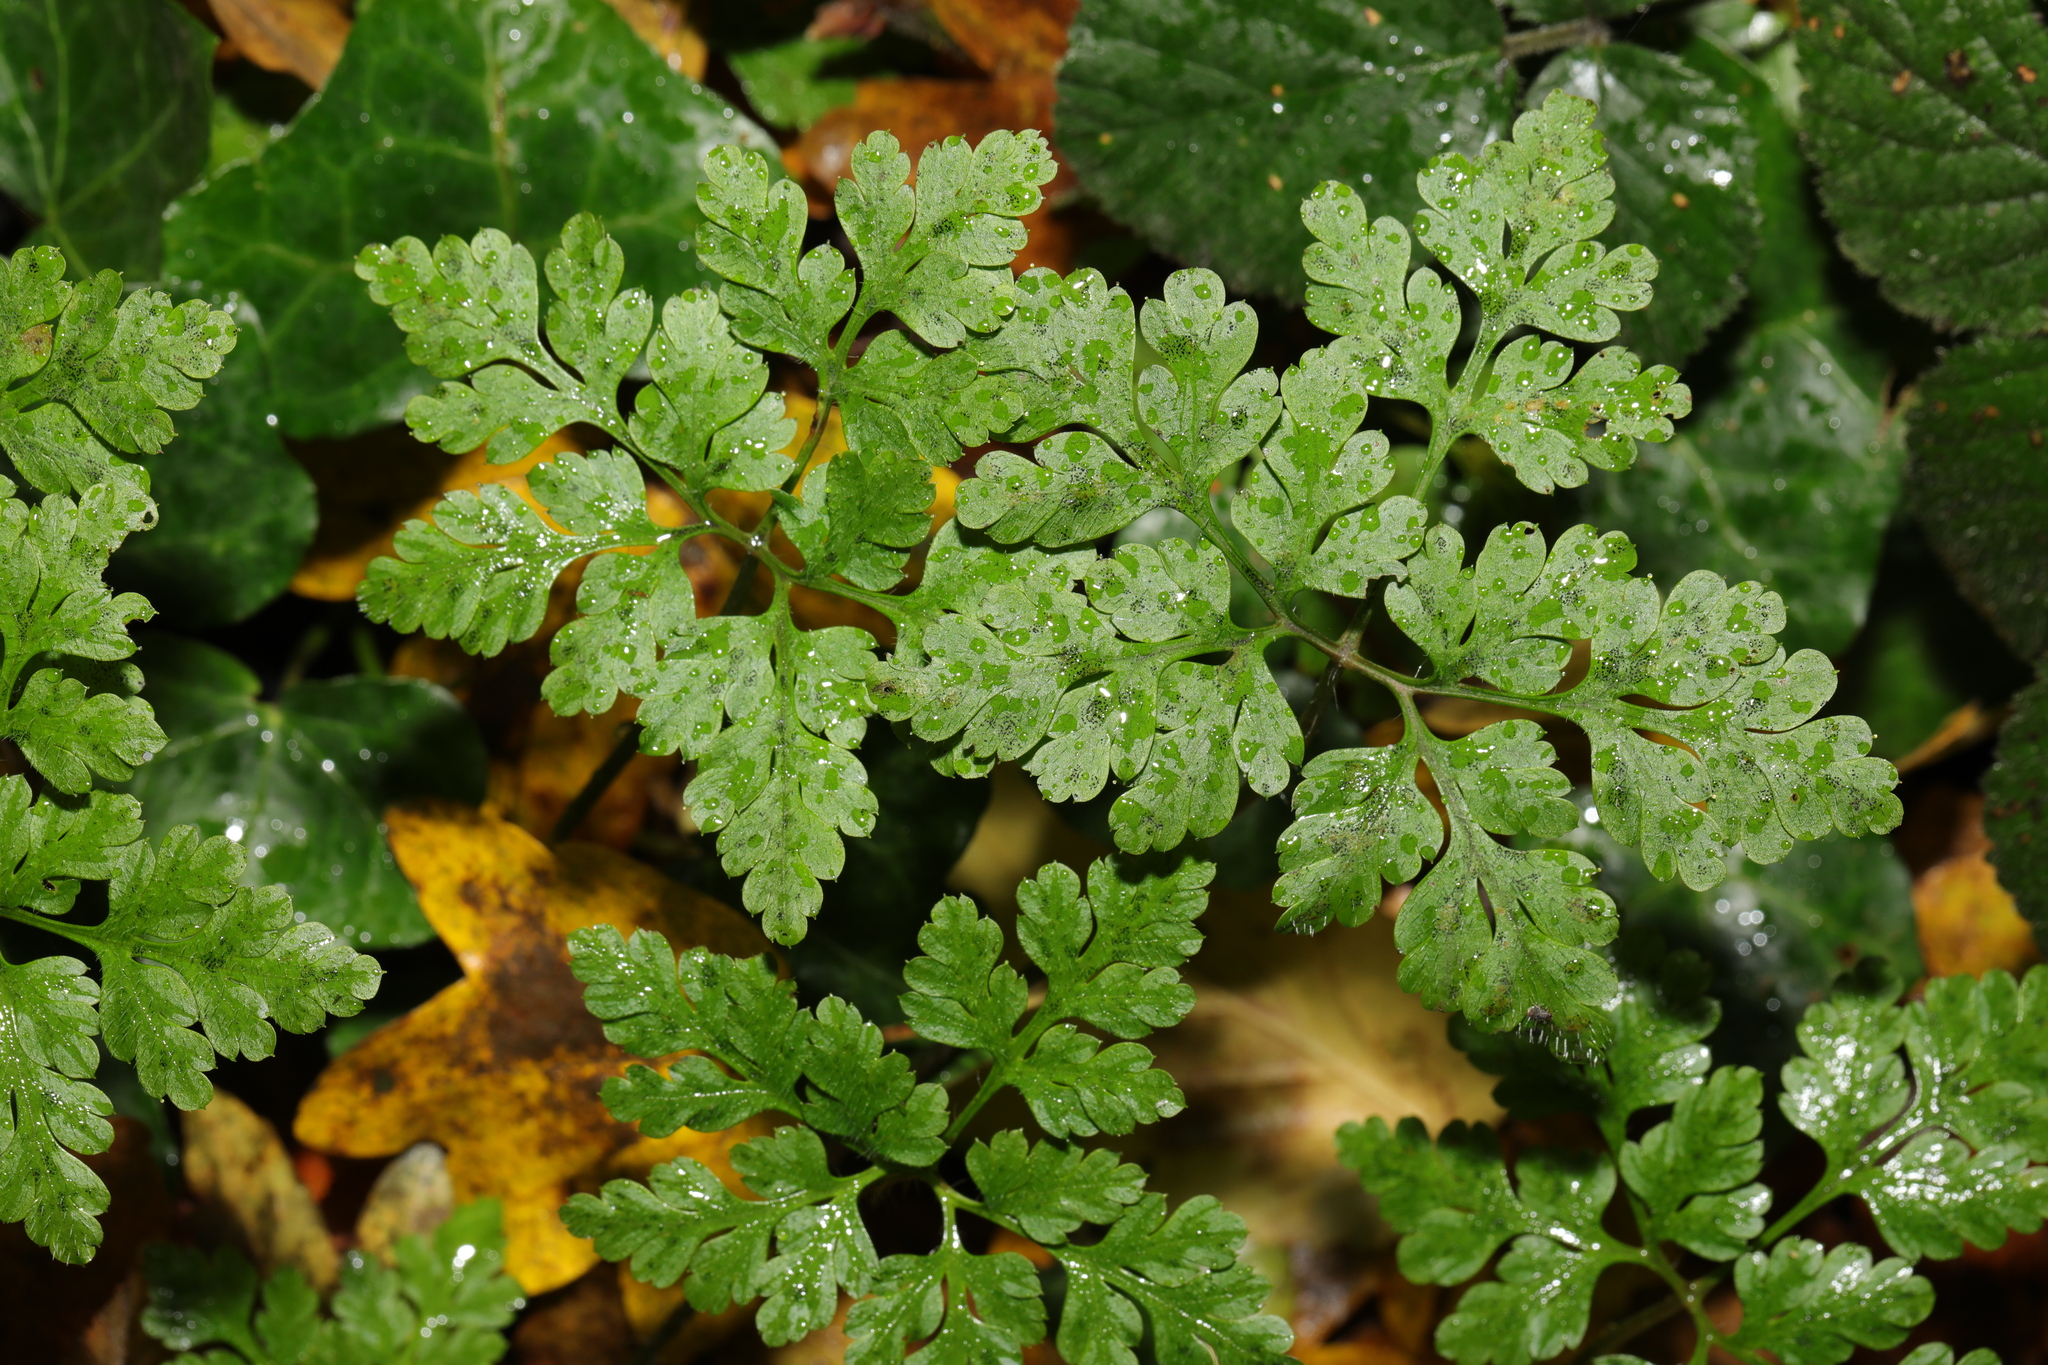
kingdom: Plantae
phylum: Tracheophyta
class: Magnoliopsida
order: Geraniales
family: Geraniaceae
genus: Geranium
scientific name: Geranium robertianum
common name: Herb-robert
